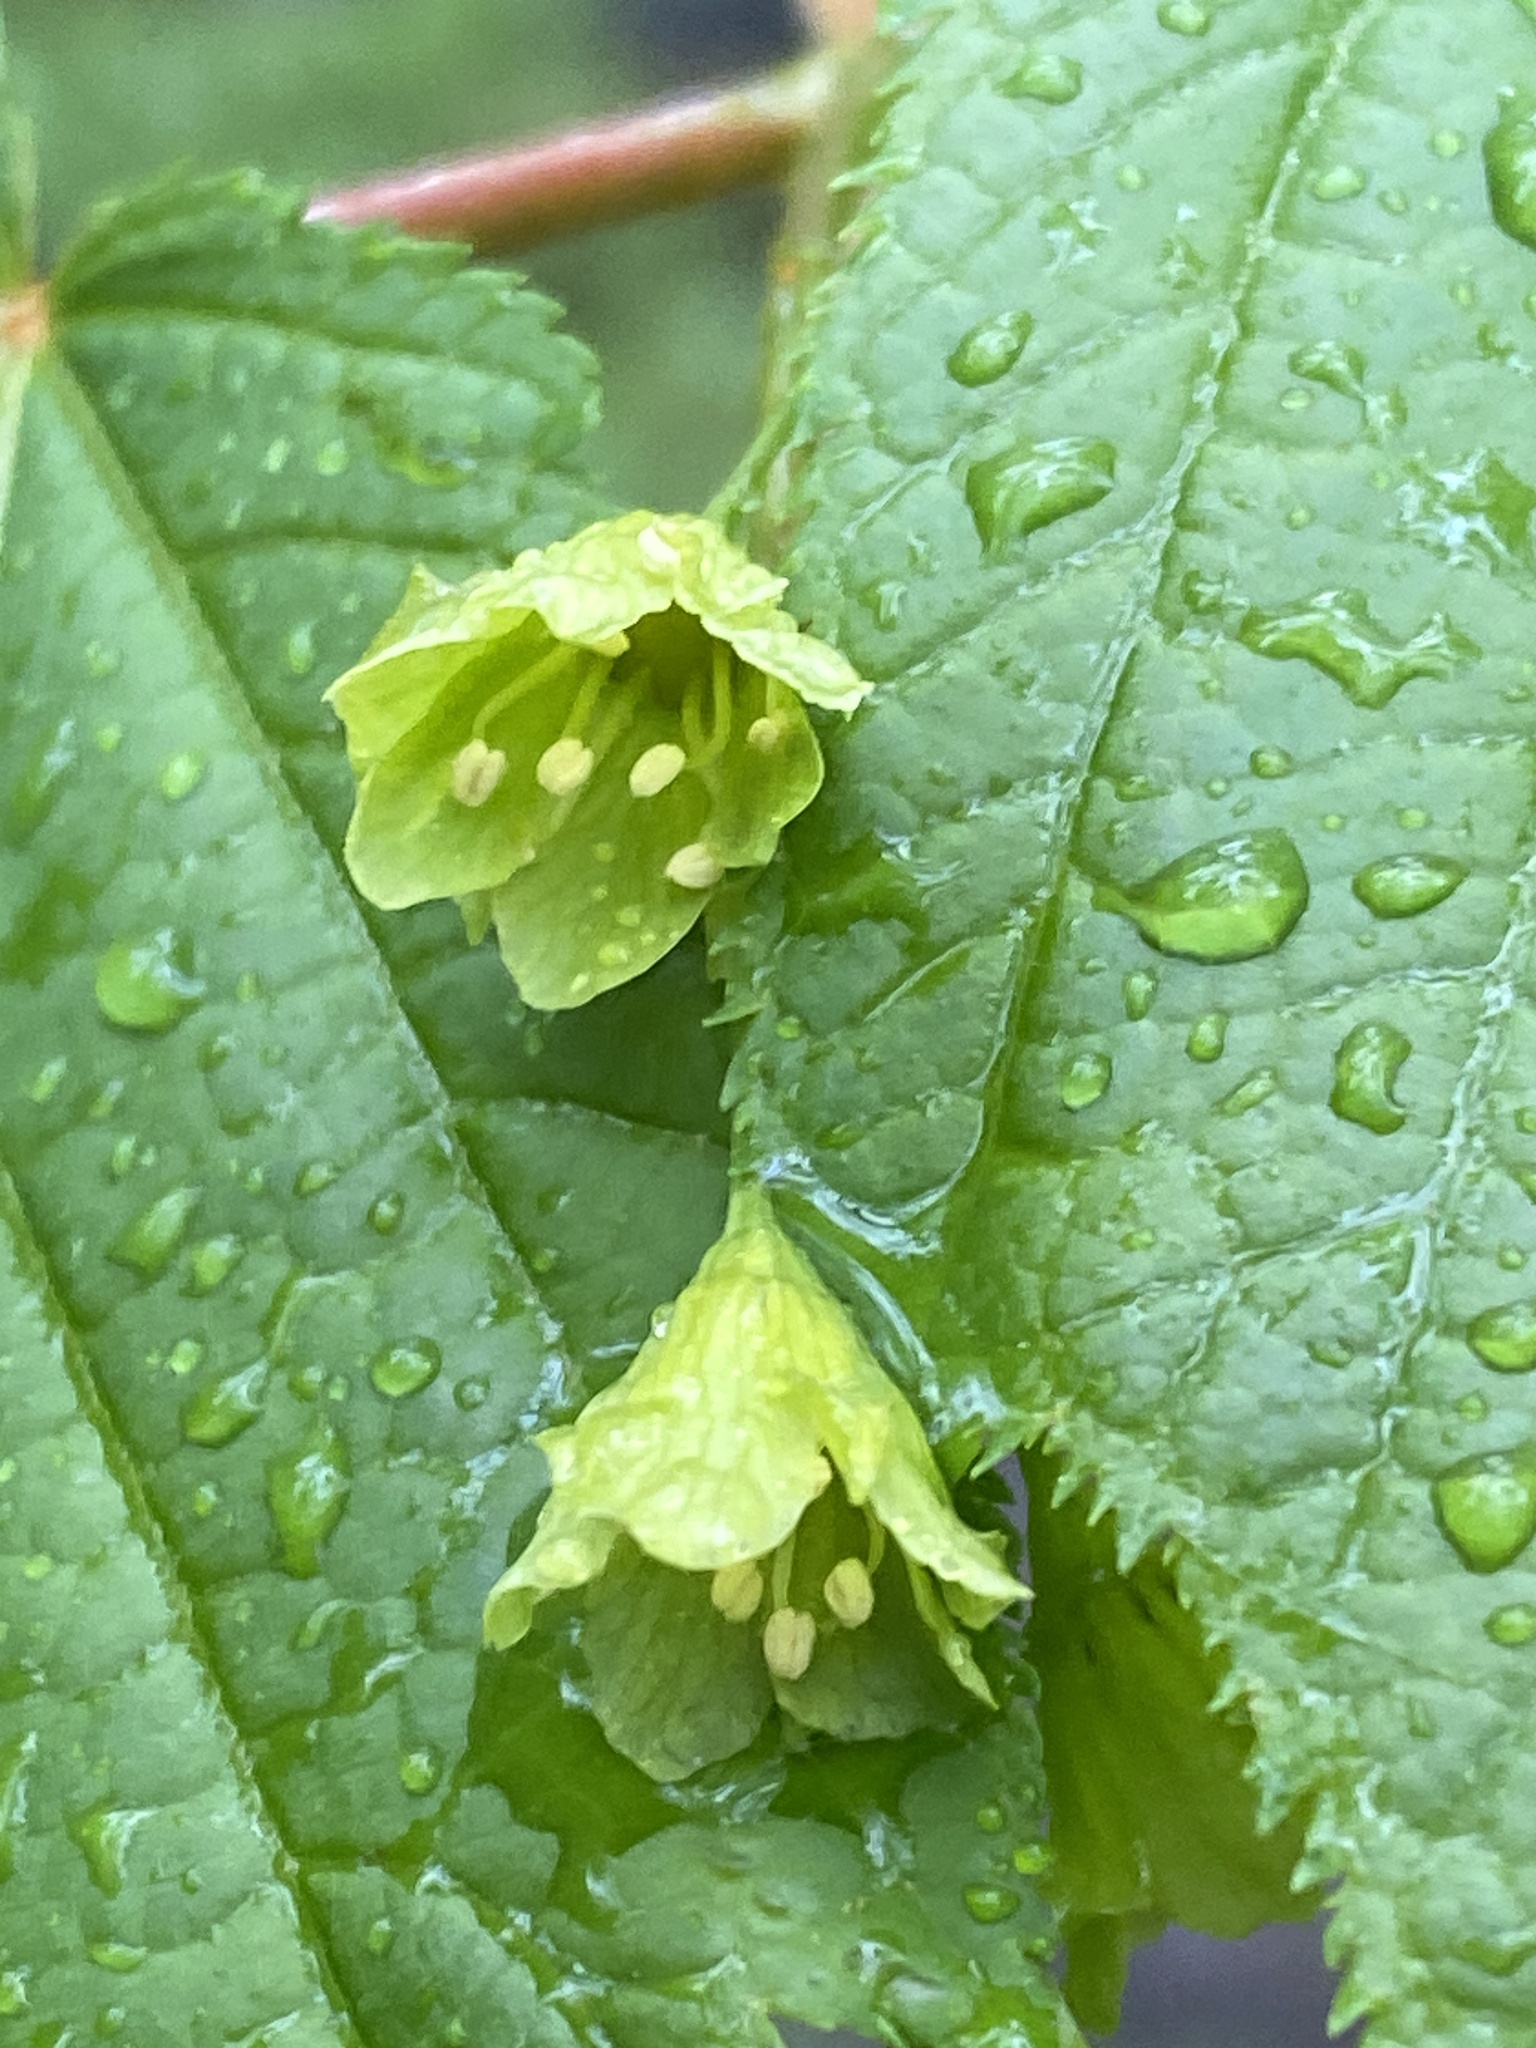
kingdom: Plantae
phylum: Tracheophyta
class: Magnoliopsida
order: Sapindales
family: Sapindaceae
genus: Acer
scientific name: Acer pensylvanicum
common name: Moosewood
